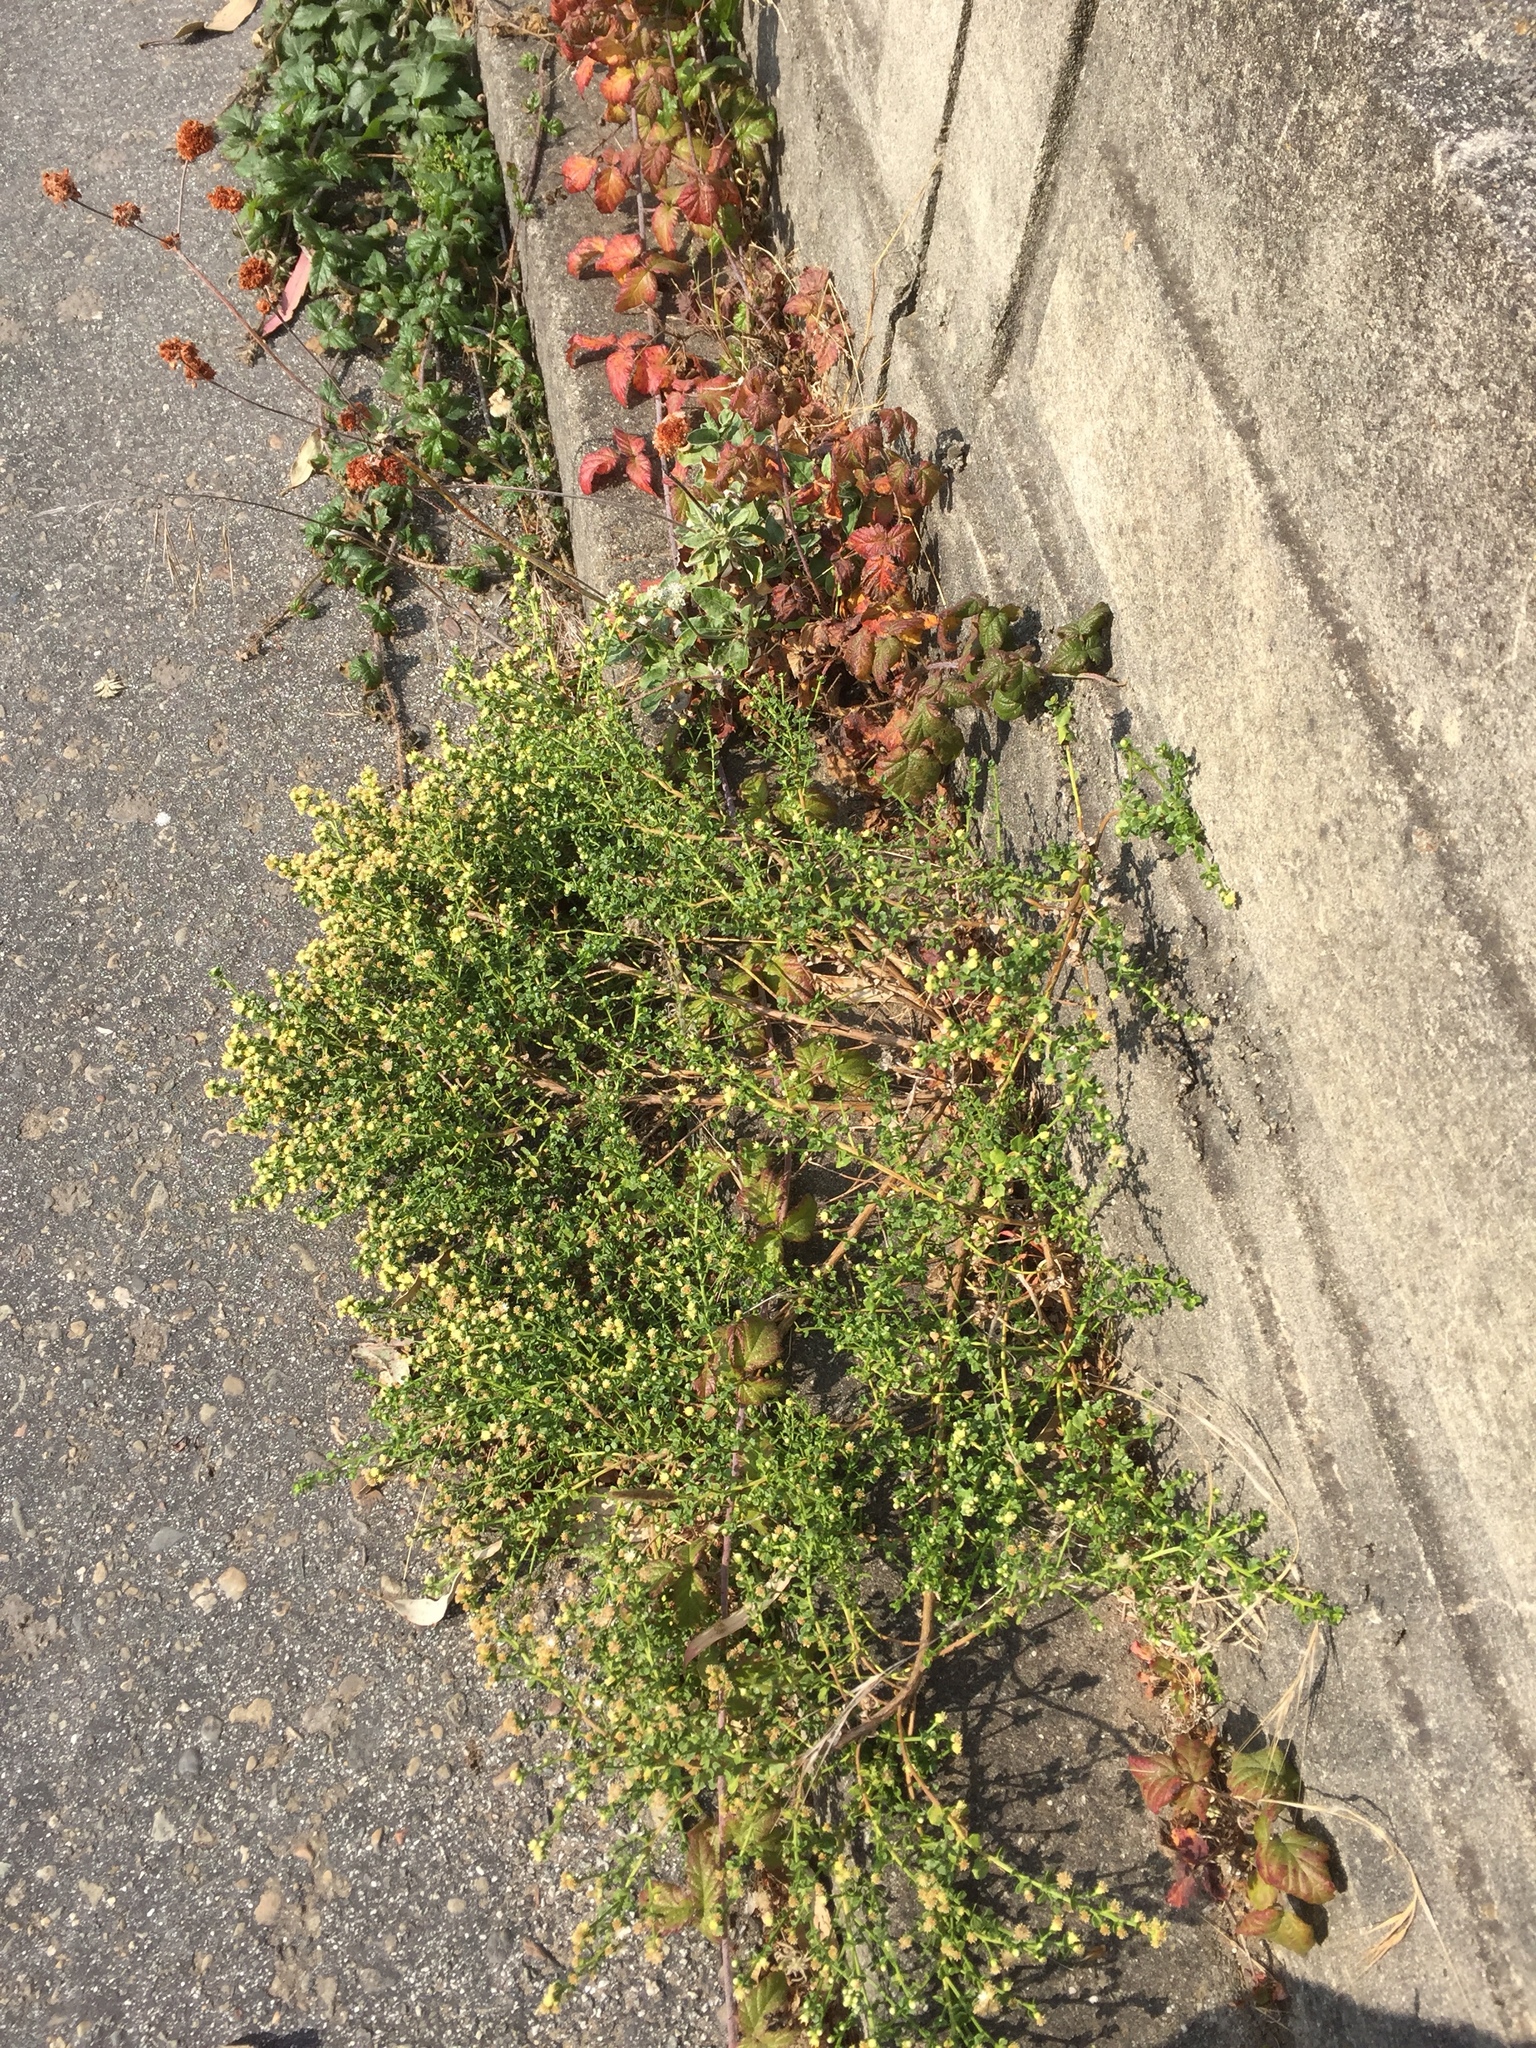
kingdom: Plantae
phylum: Tracheophyta
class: Magnoliopsida
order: Asterales
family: Asteraceae
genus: Baccharis
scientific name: Baccharis pilularis
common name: Coyotebrush
